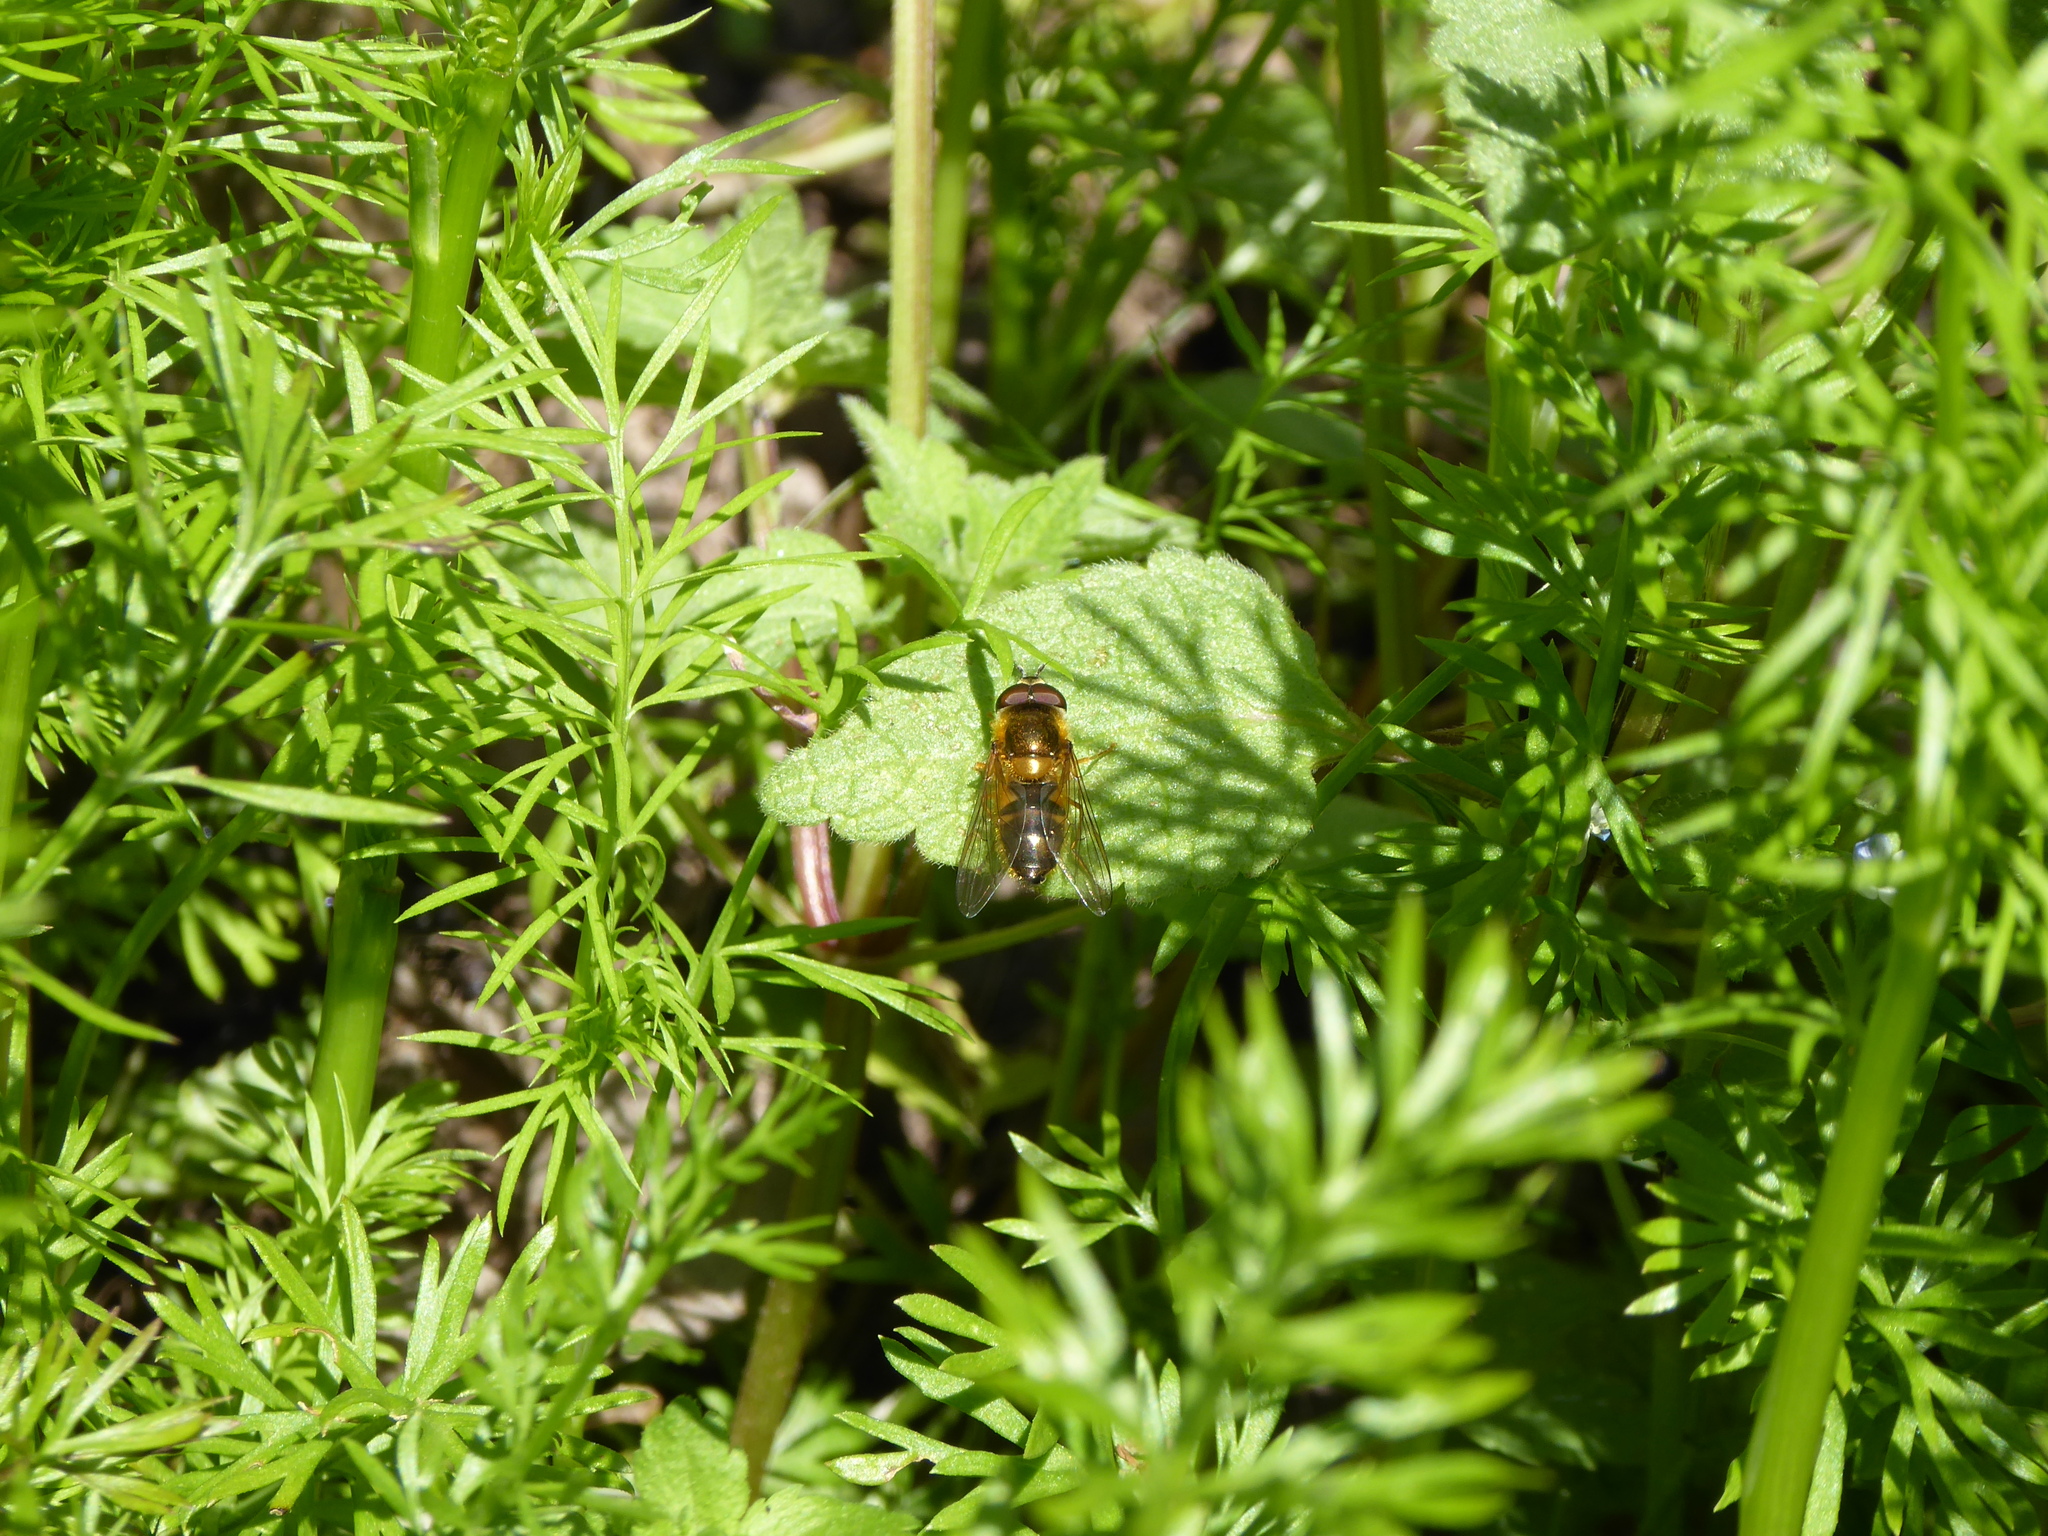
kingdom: Animalia
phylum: Arthropoda
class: Insecta
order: Diptera
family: Syrphidae
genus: Epistrophe
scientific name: Epistrophe eligans
